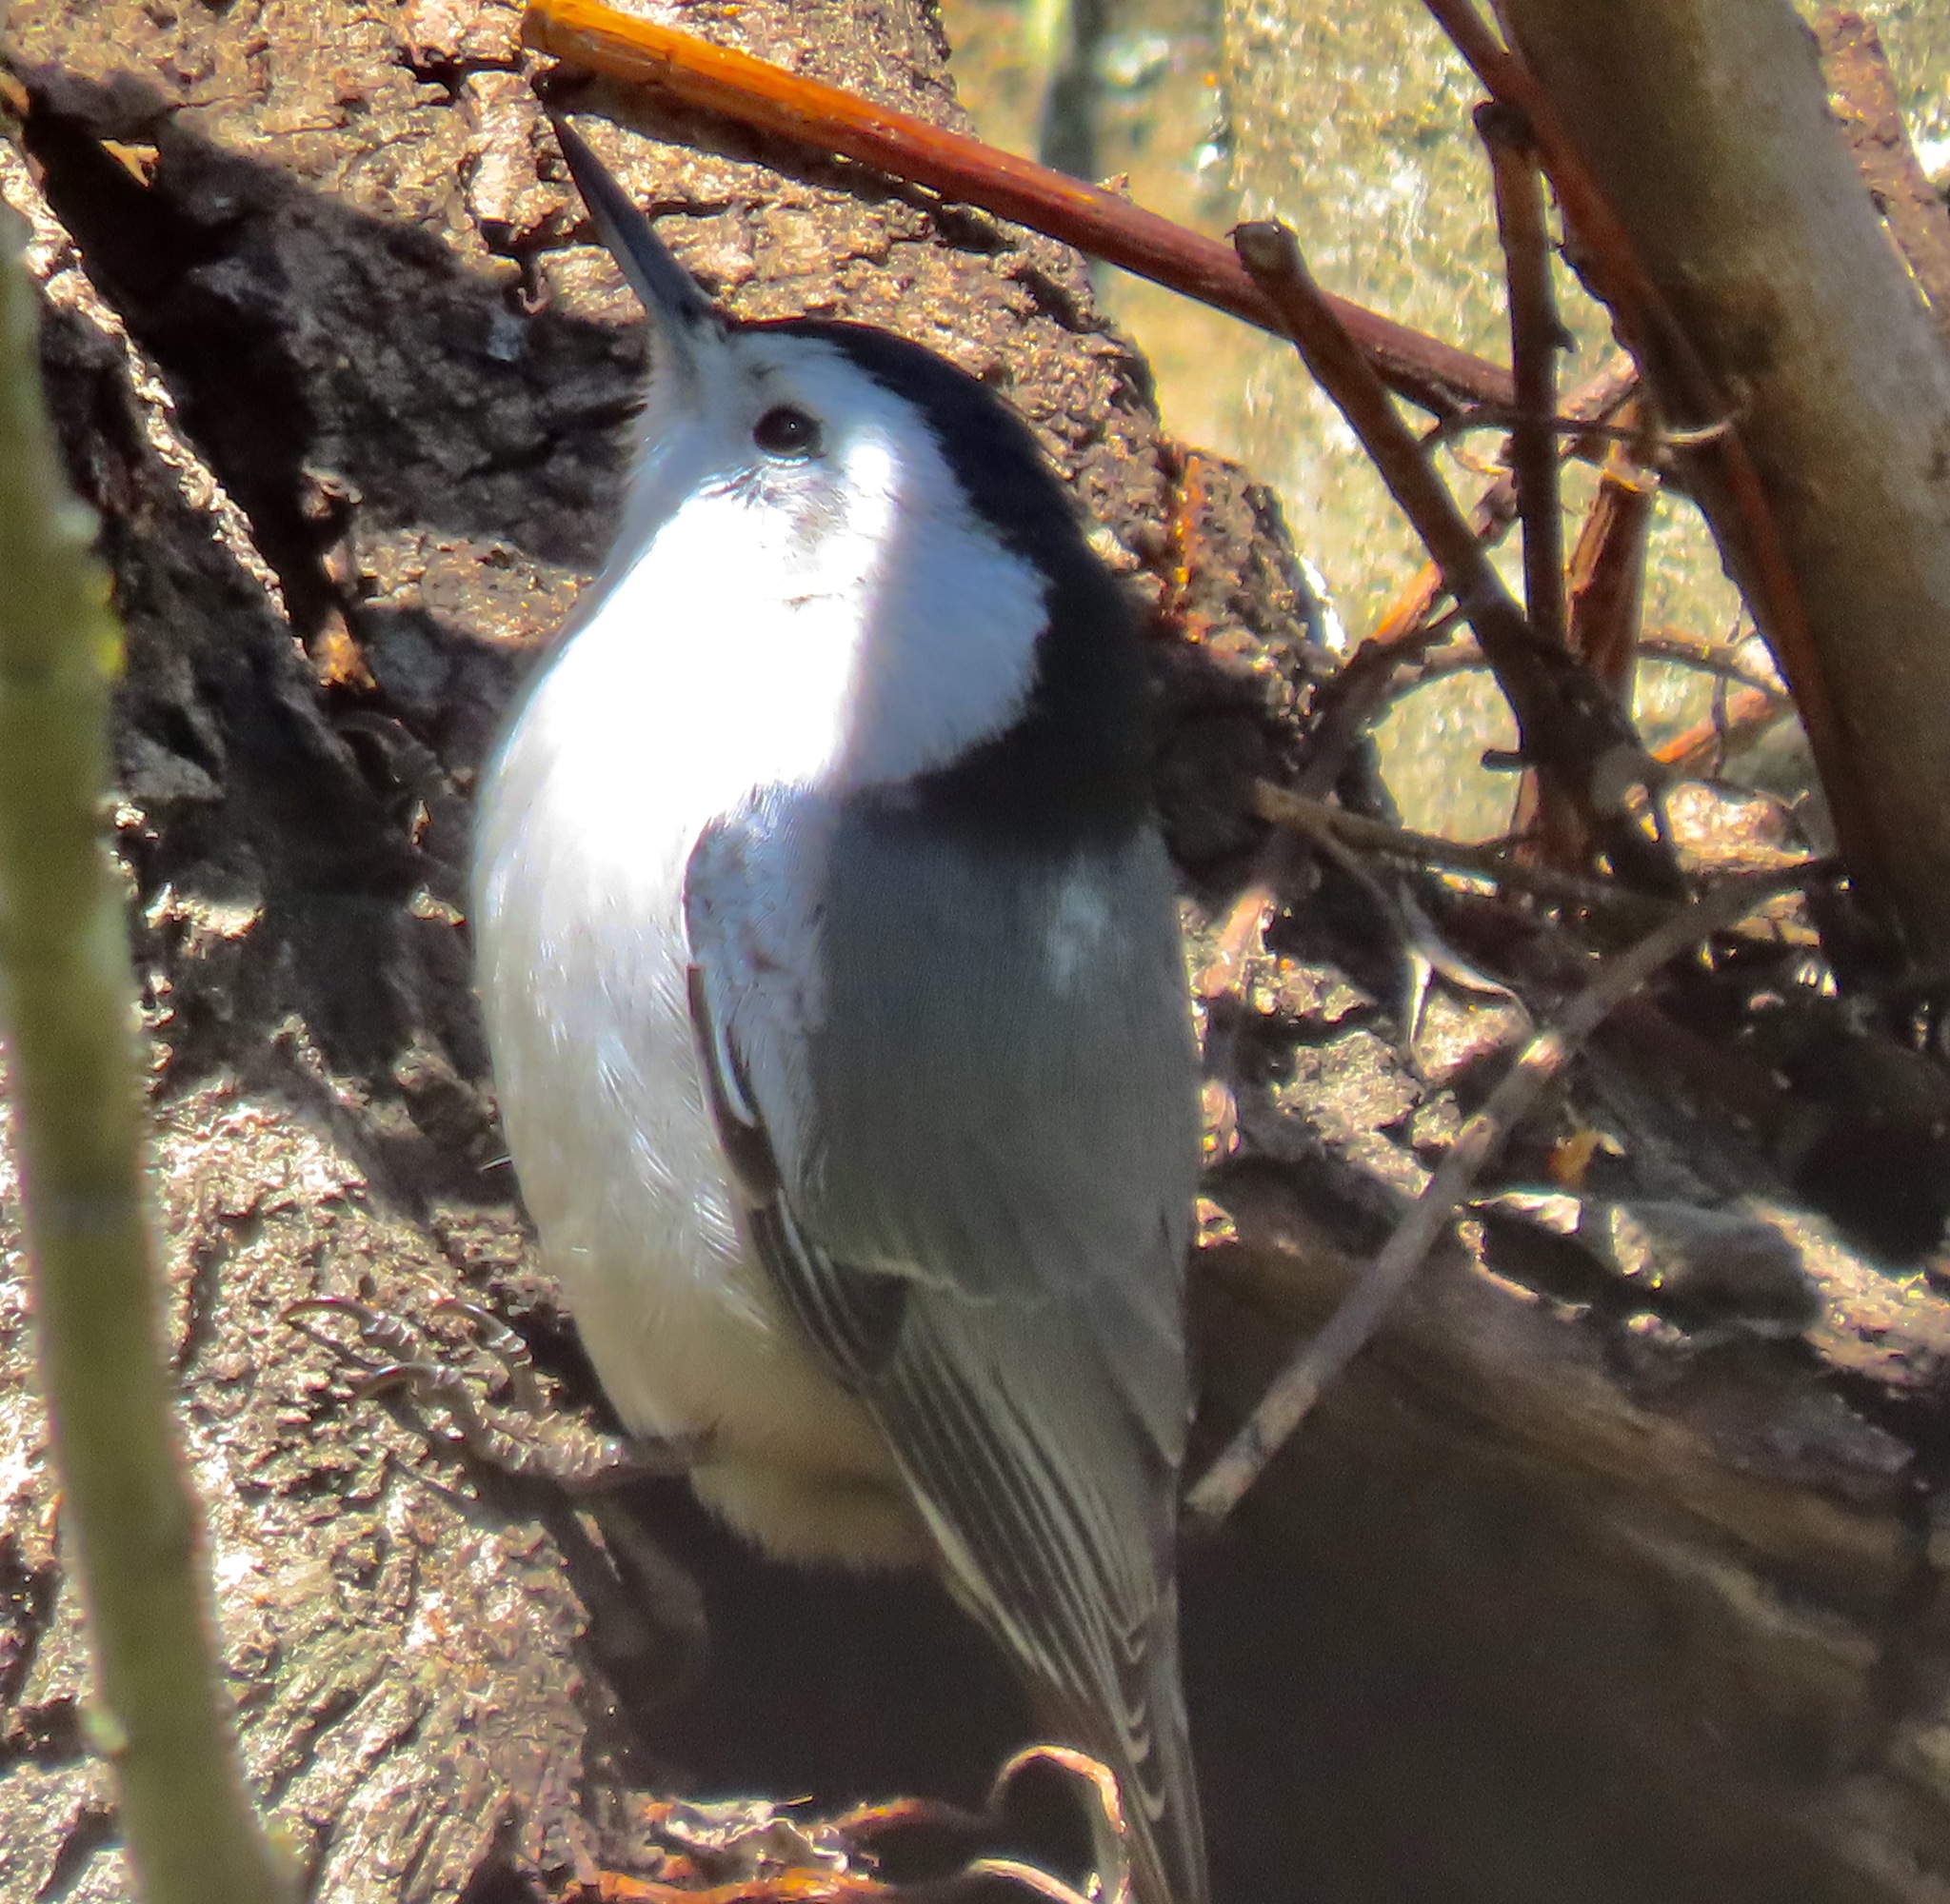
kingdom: Animalia
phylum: Chordata
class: Aves
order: Passeriformes
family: Sittidae
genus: Sitta
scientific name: Sitta carolinensis
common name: White-breasted nuthatch
